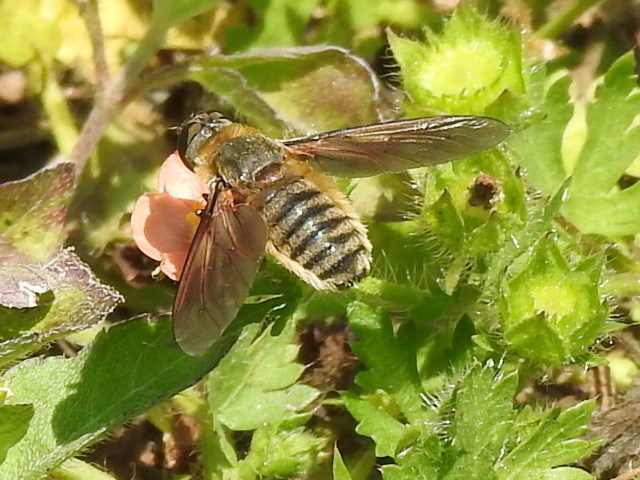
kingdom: Animalia
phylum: Arthropoda
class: Insecta
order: Diptera
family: Bombyliidae
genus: Poecilanthrax
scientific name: Poecilanthrax lucifer
